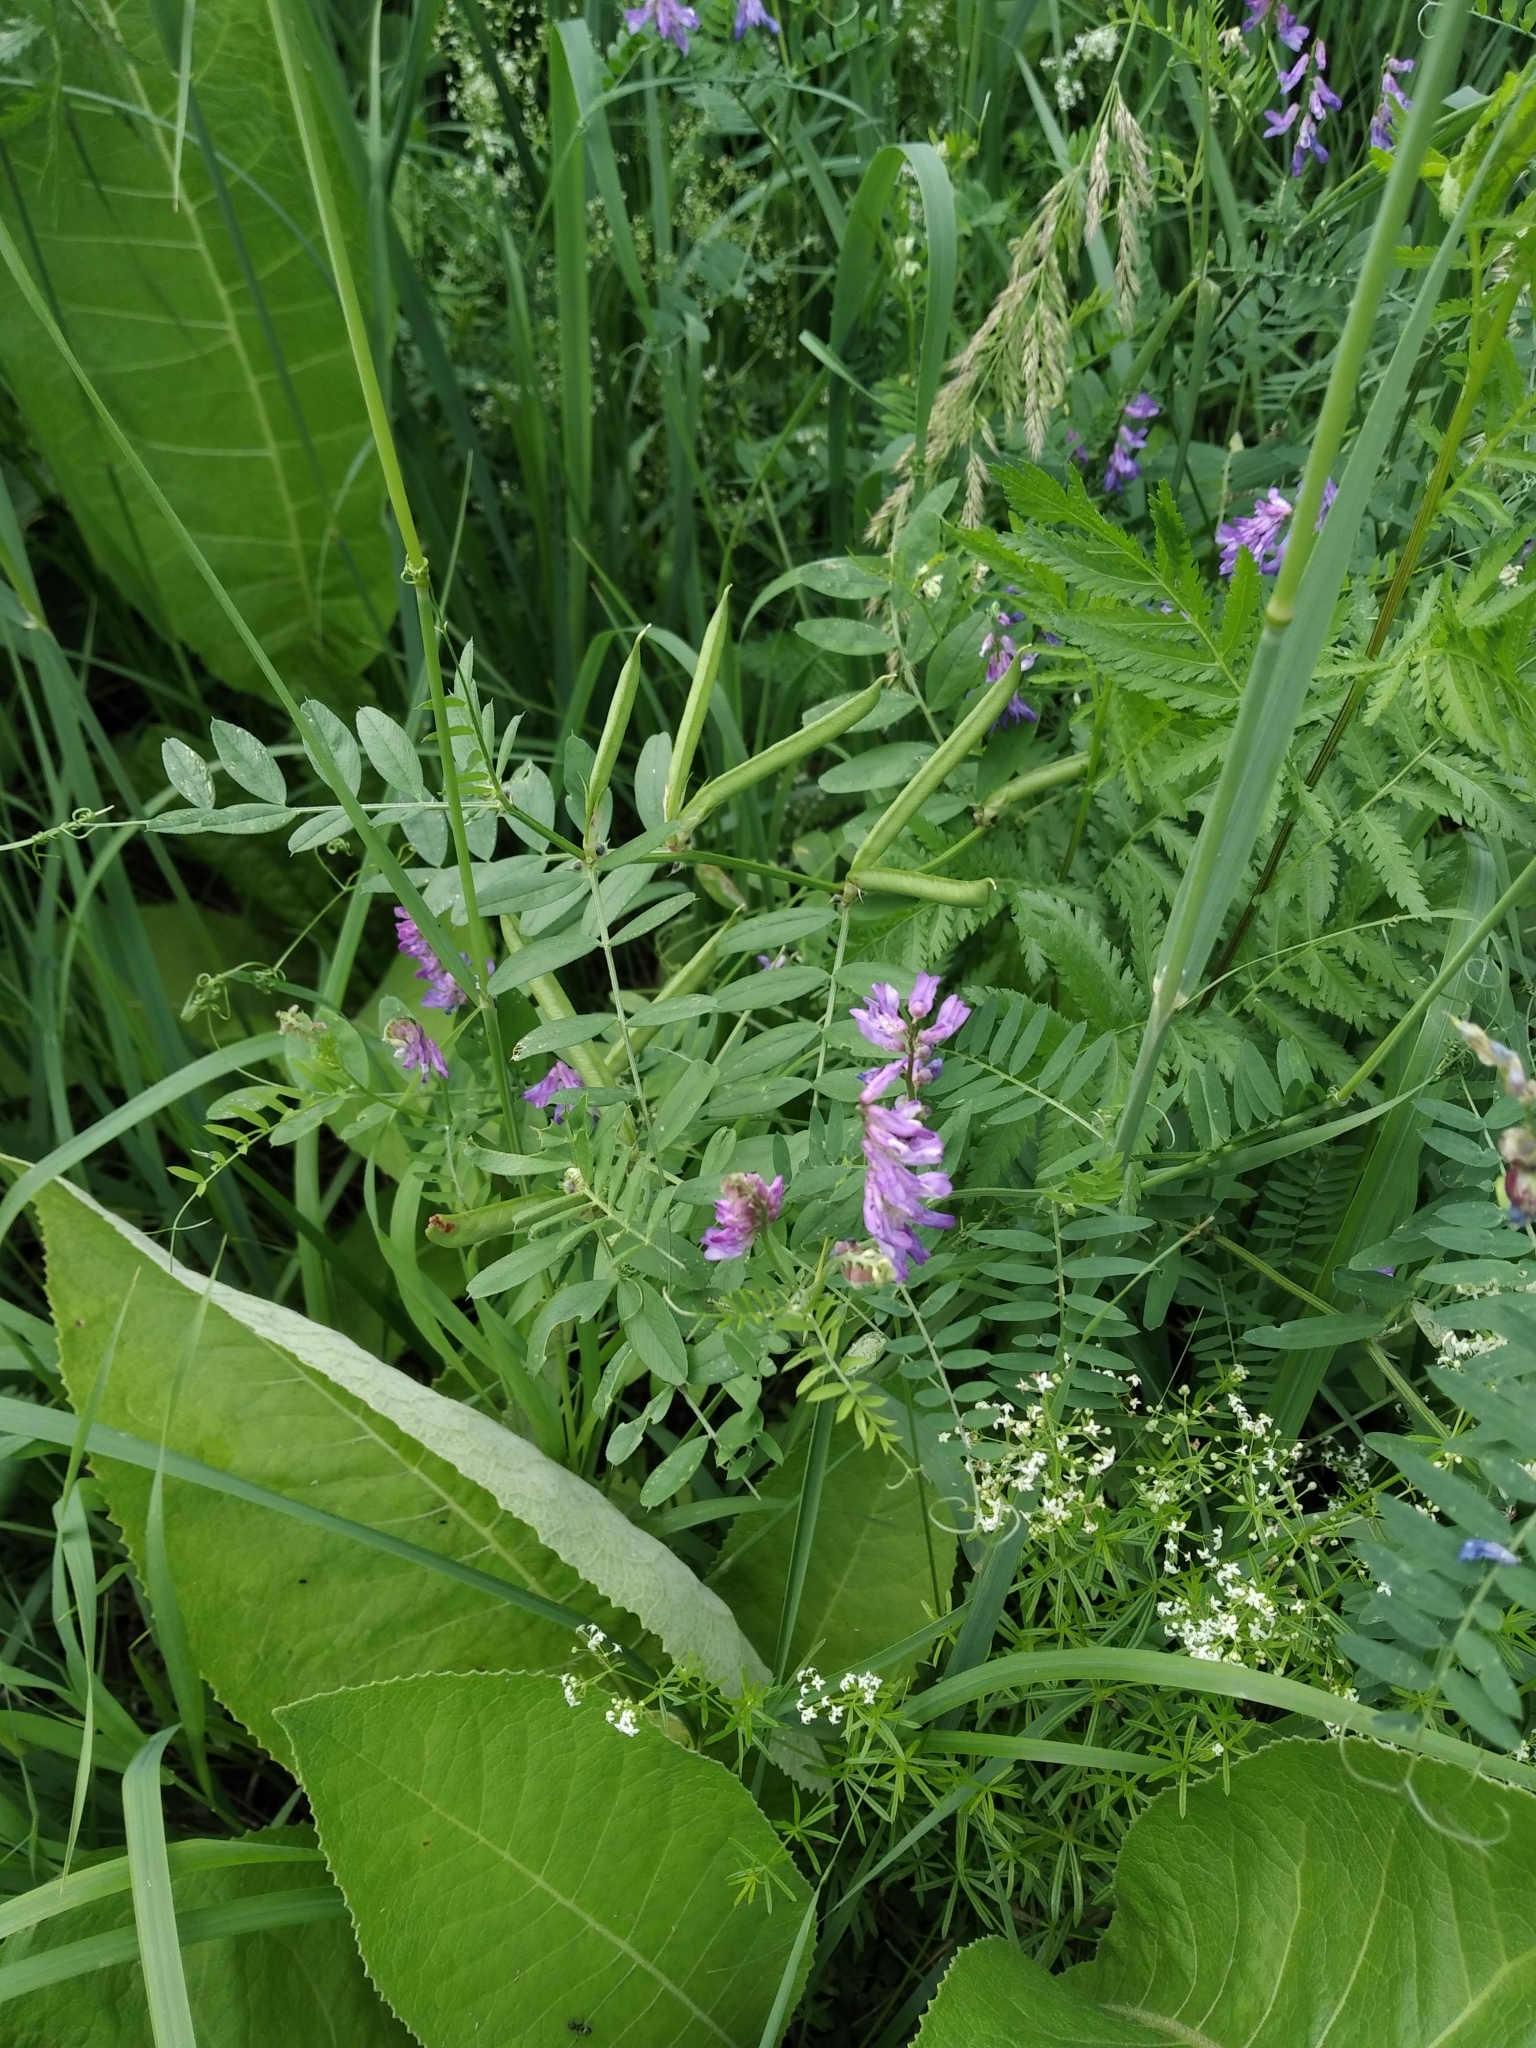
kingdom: Plantae
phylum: Tracheophyta
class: Magnoliopsida
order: Fabales
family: Fabaceae
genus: Vicia
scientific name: Vicia cracca
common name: Bird vetch
